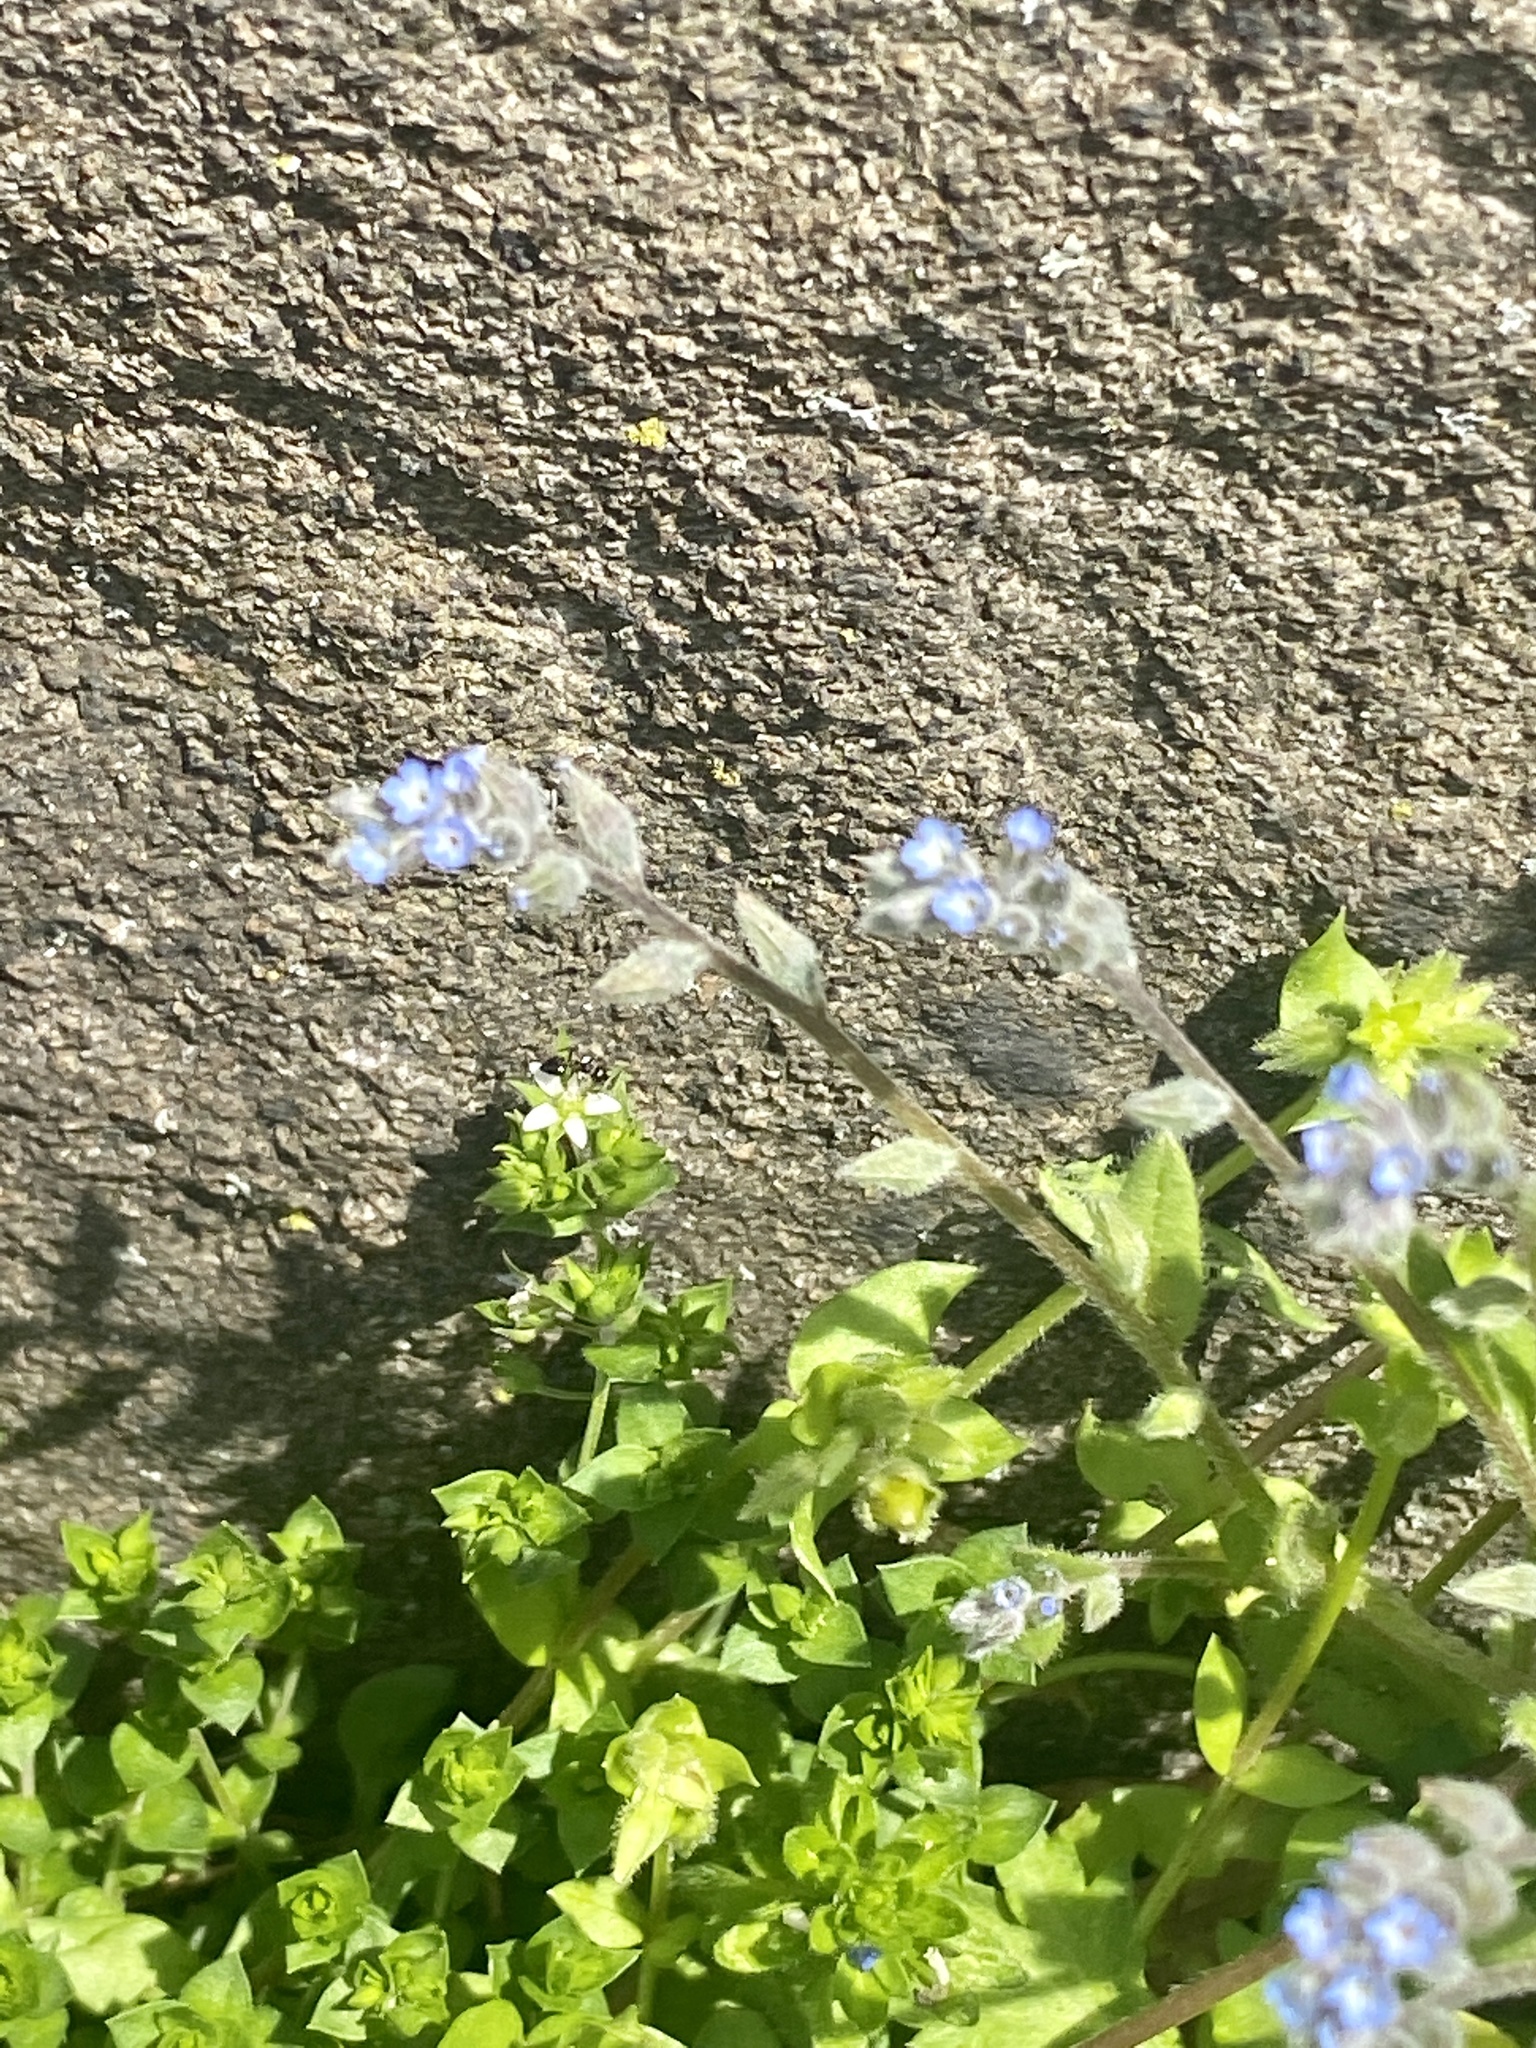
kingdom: Plantae
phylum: Tracheophyta
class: Magnoliopsida
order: Boraginales
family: Boraginaceae
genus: Myosotis
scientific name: Myosotis stricta
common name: Strict forget-me-not
